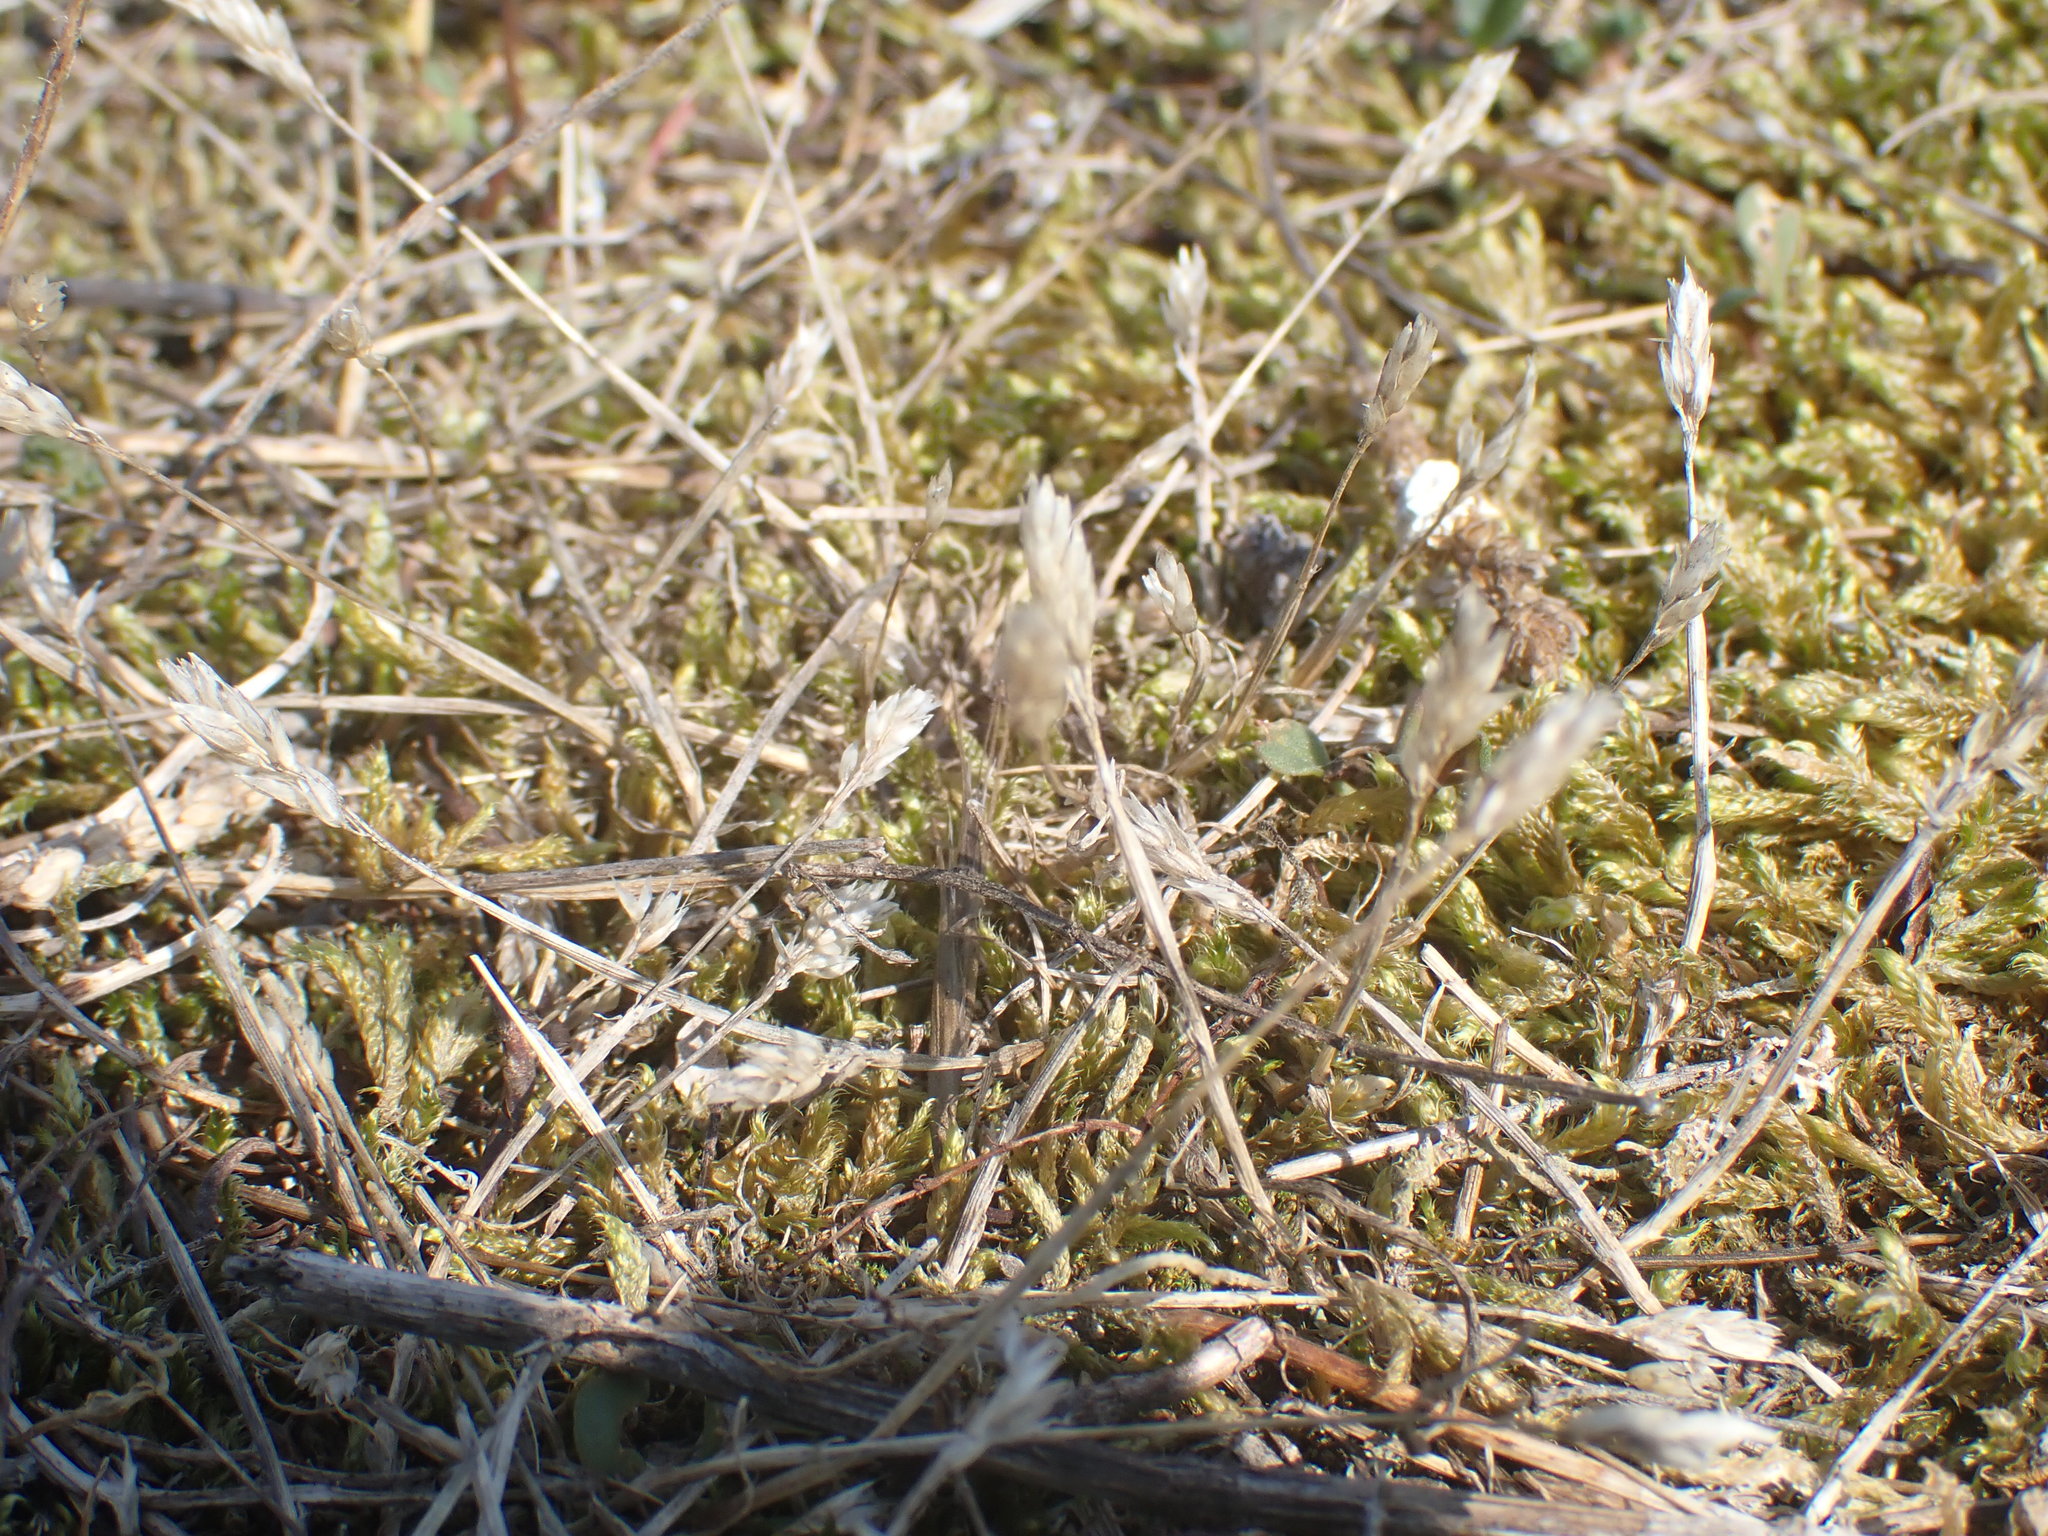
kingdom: Plantae
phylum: Tracheophyta
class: Liliopsida
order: Poales
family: Poaceae
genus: Aira
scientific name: Aira praecox
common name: Early hair-grass
